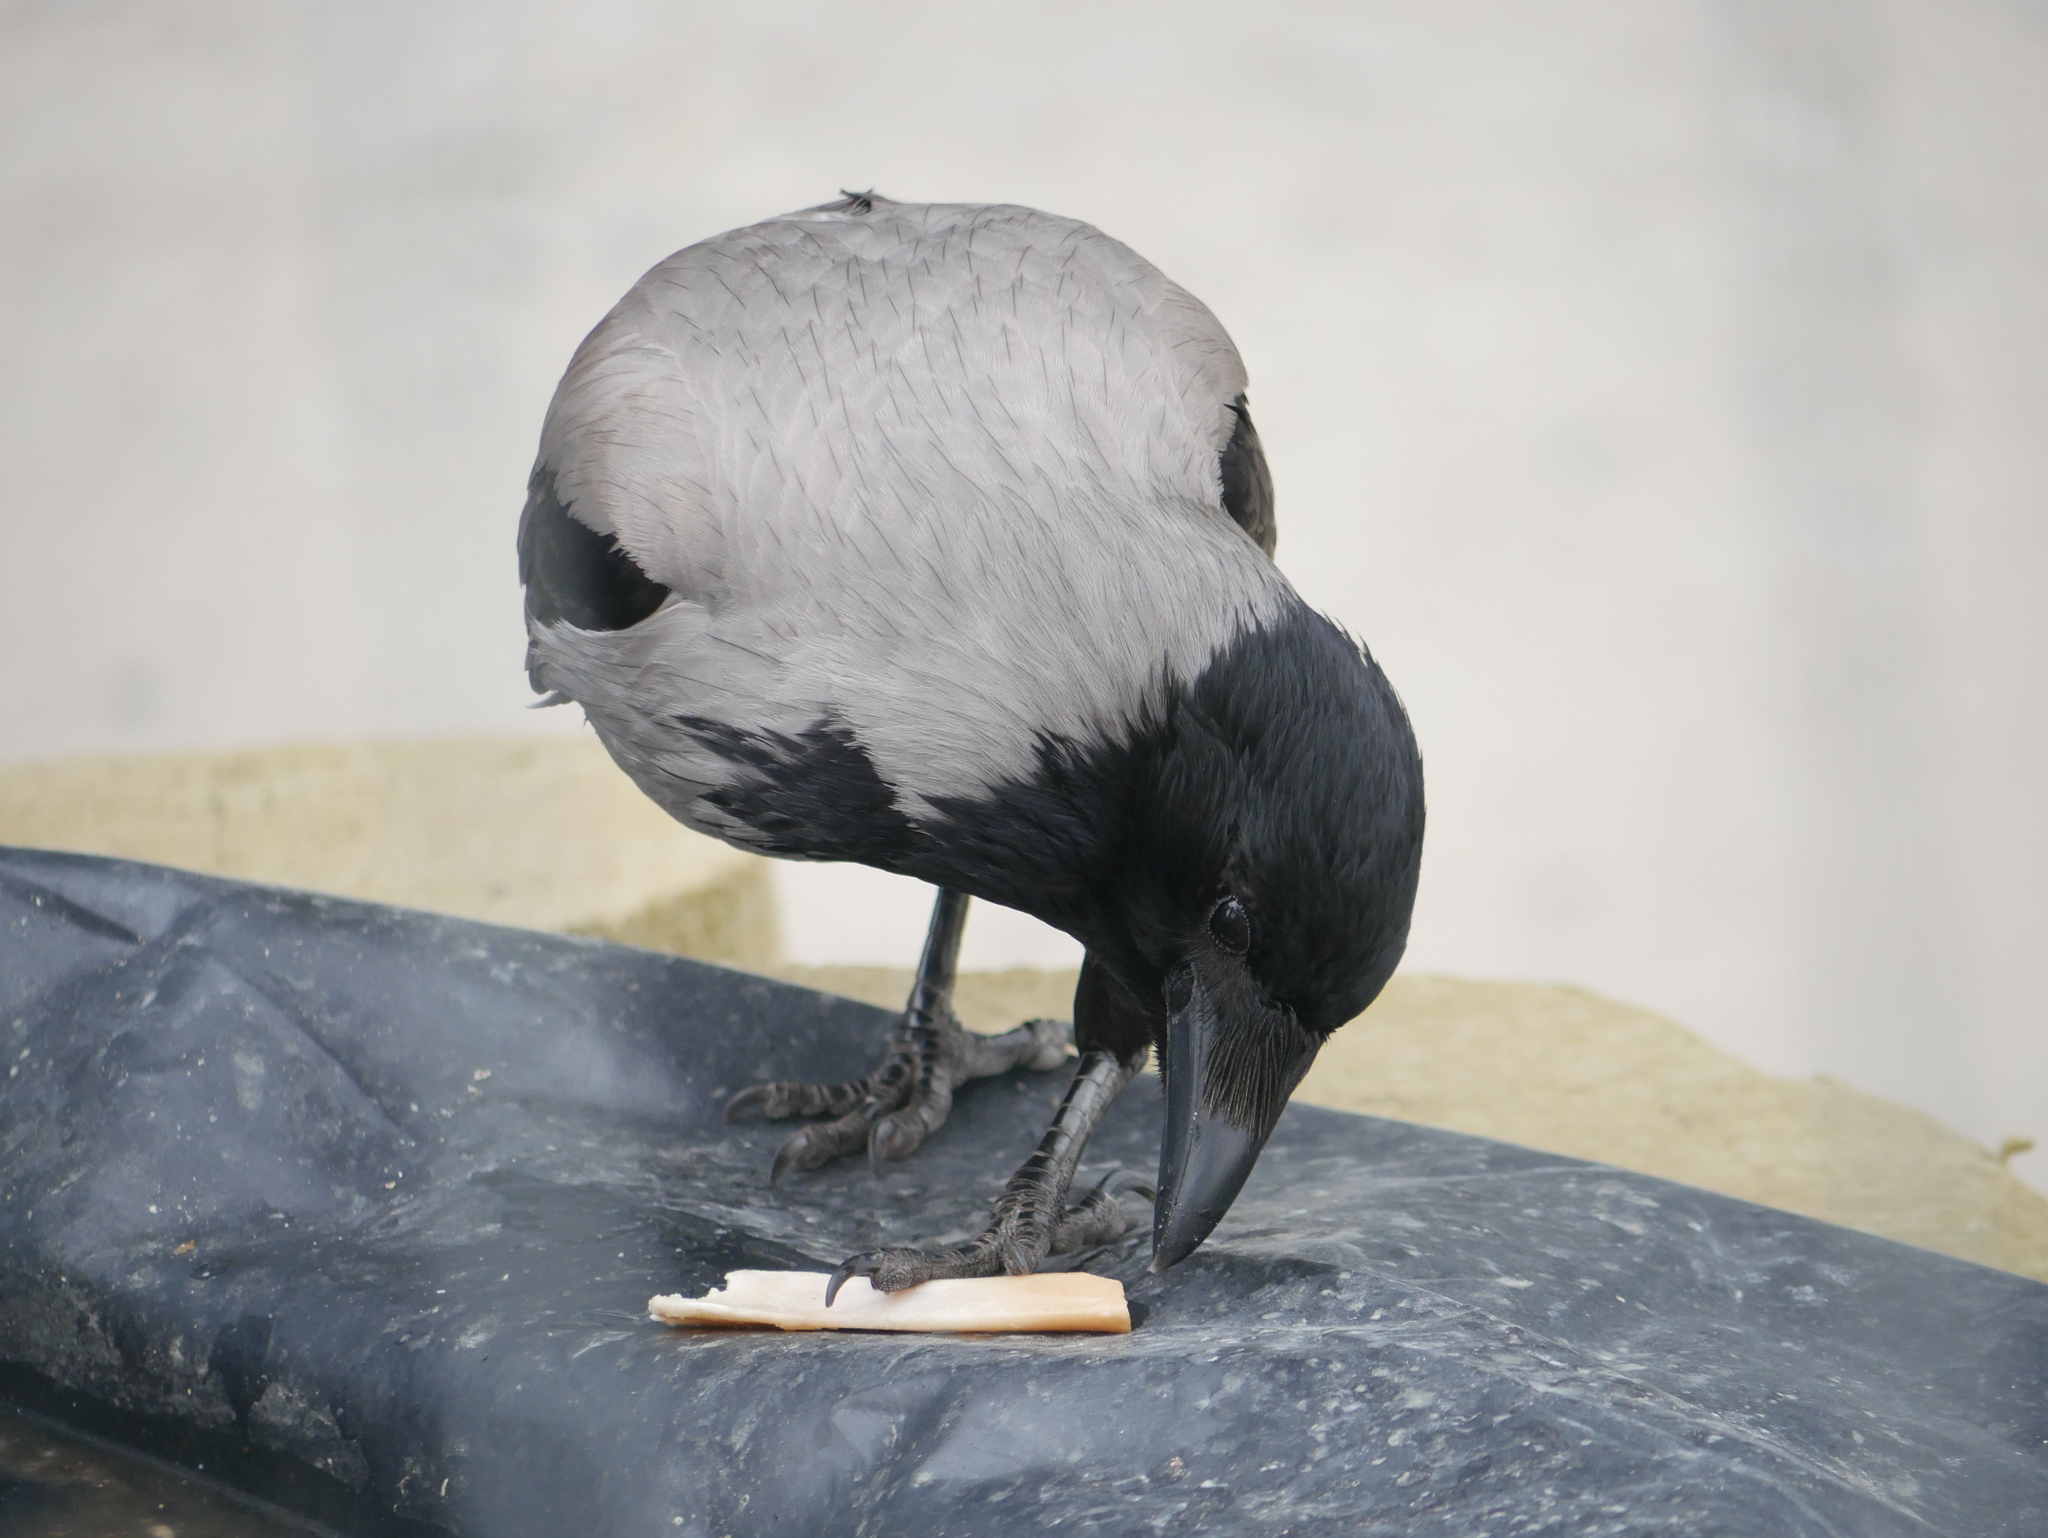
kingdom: Animalia
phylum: Chordata
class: Aves
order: Passeriformes
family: Corvidae
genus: Corvus
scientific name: Corvus cornix
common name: Hooded crow
